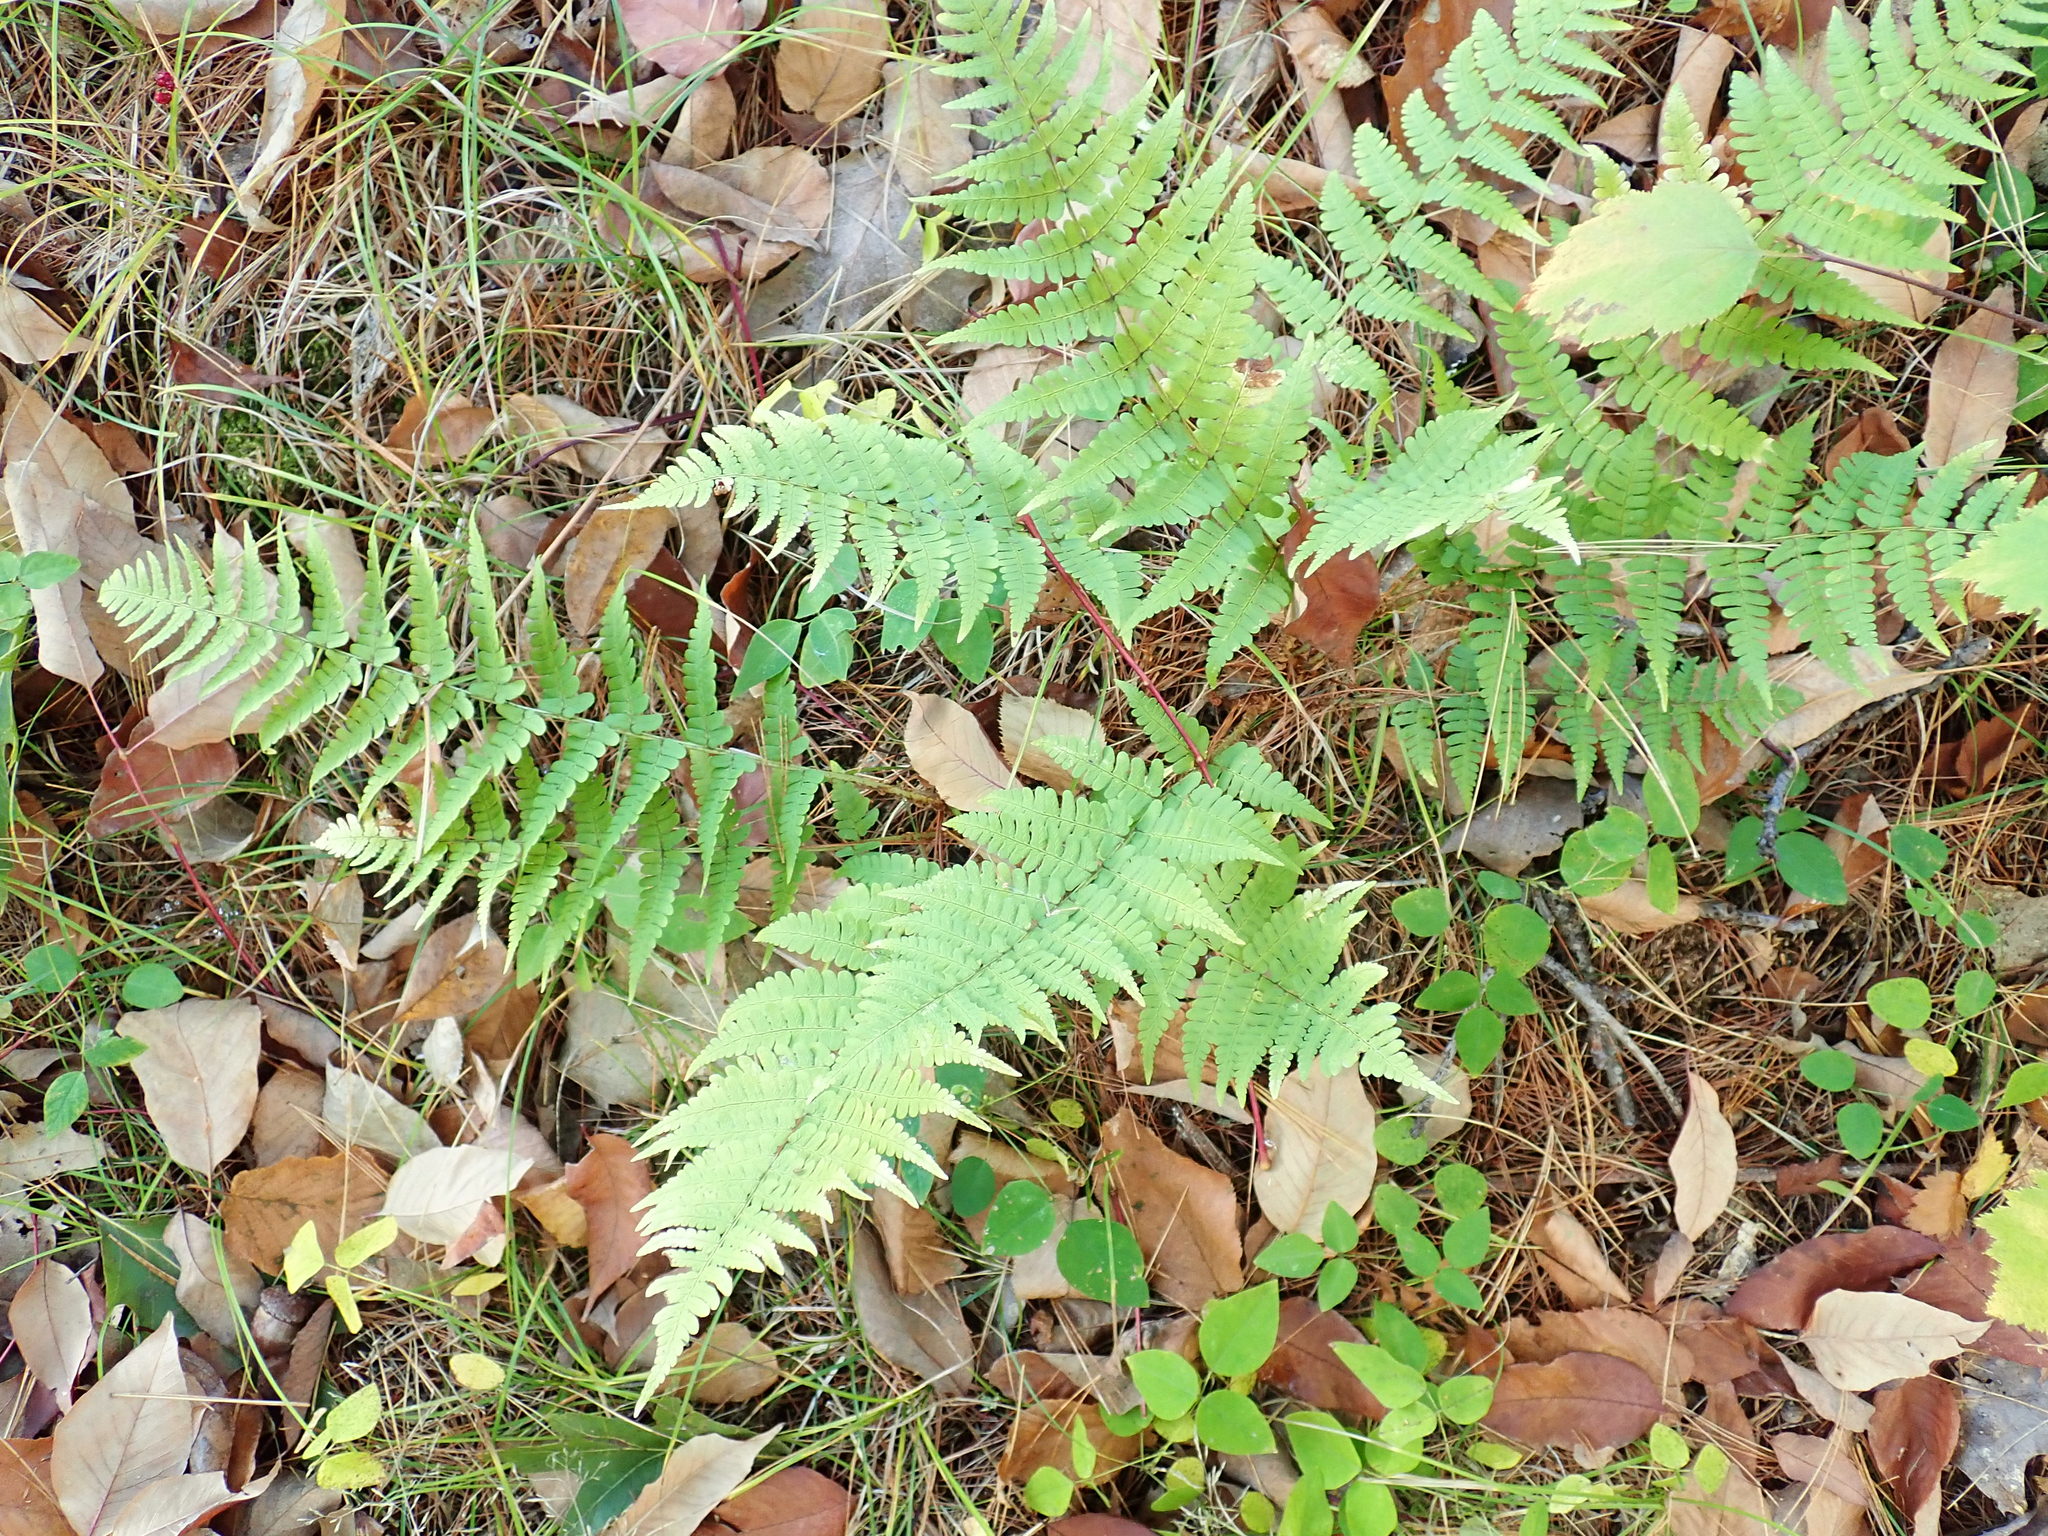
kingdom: Plantae
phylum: Tracheophyta
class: Polypodiopsida
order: Polypodiales
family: Dryopteridaceae
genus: Dryopteris
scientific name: Dryopteris marginalis
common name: Marginal wood fern
